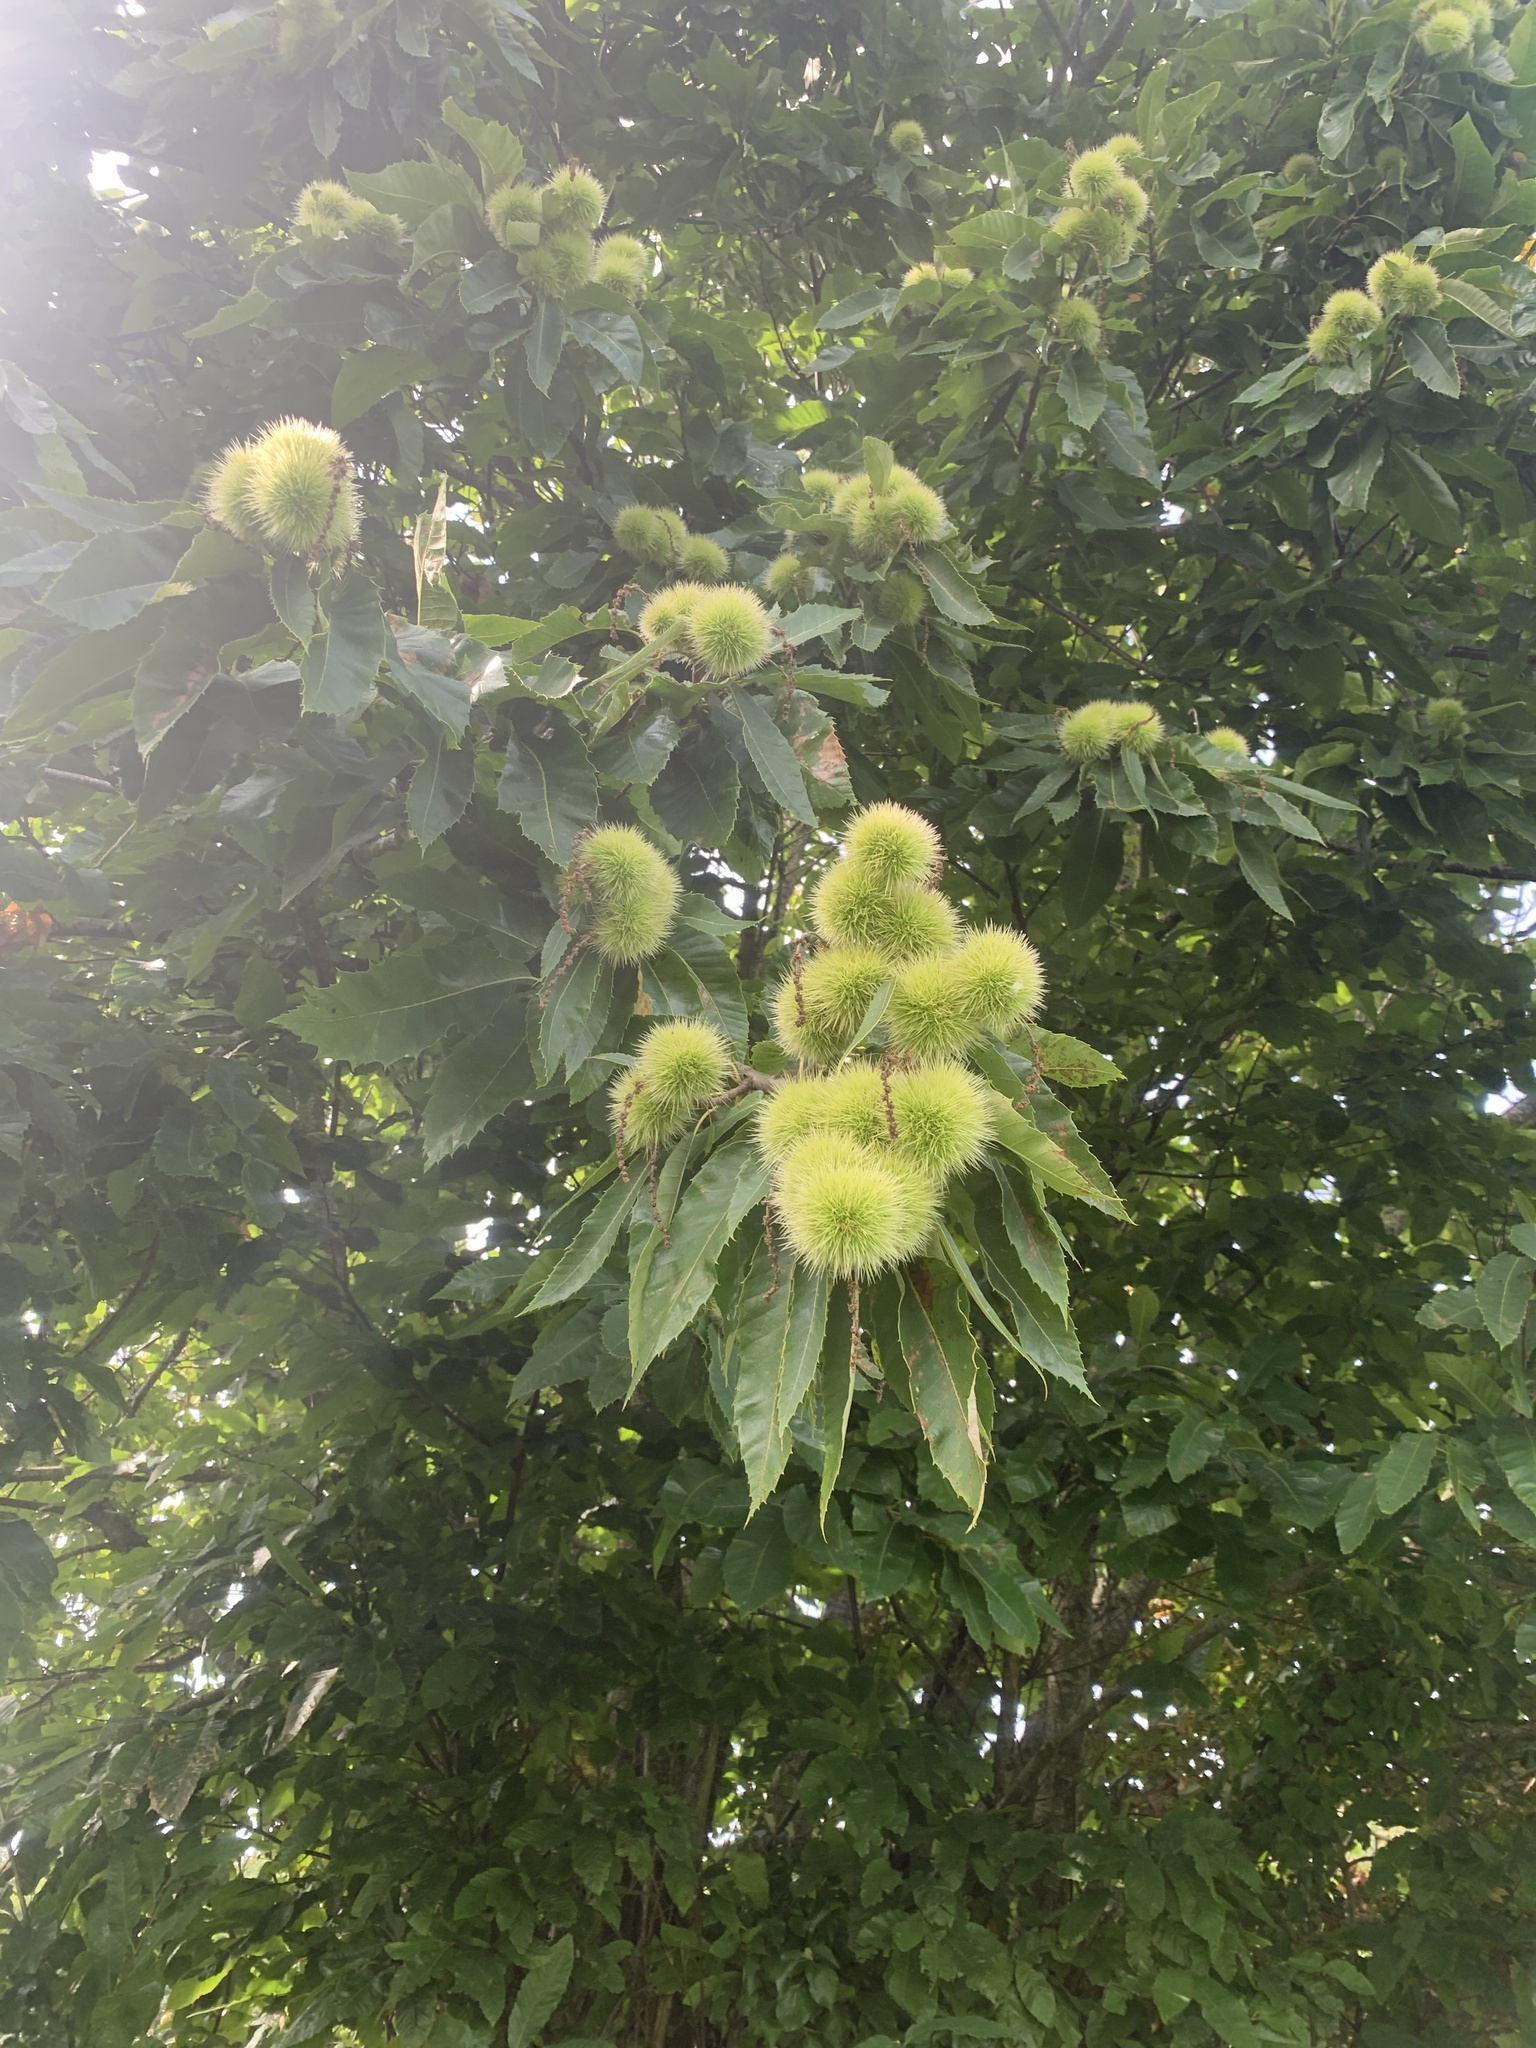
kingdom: Plantae
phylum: Tracheophyta
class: Magnoliopsida
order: Fagales
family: Fagaceae
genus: Castanea
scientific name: Castanea sativa
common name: Sweet chestnut
